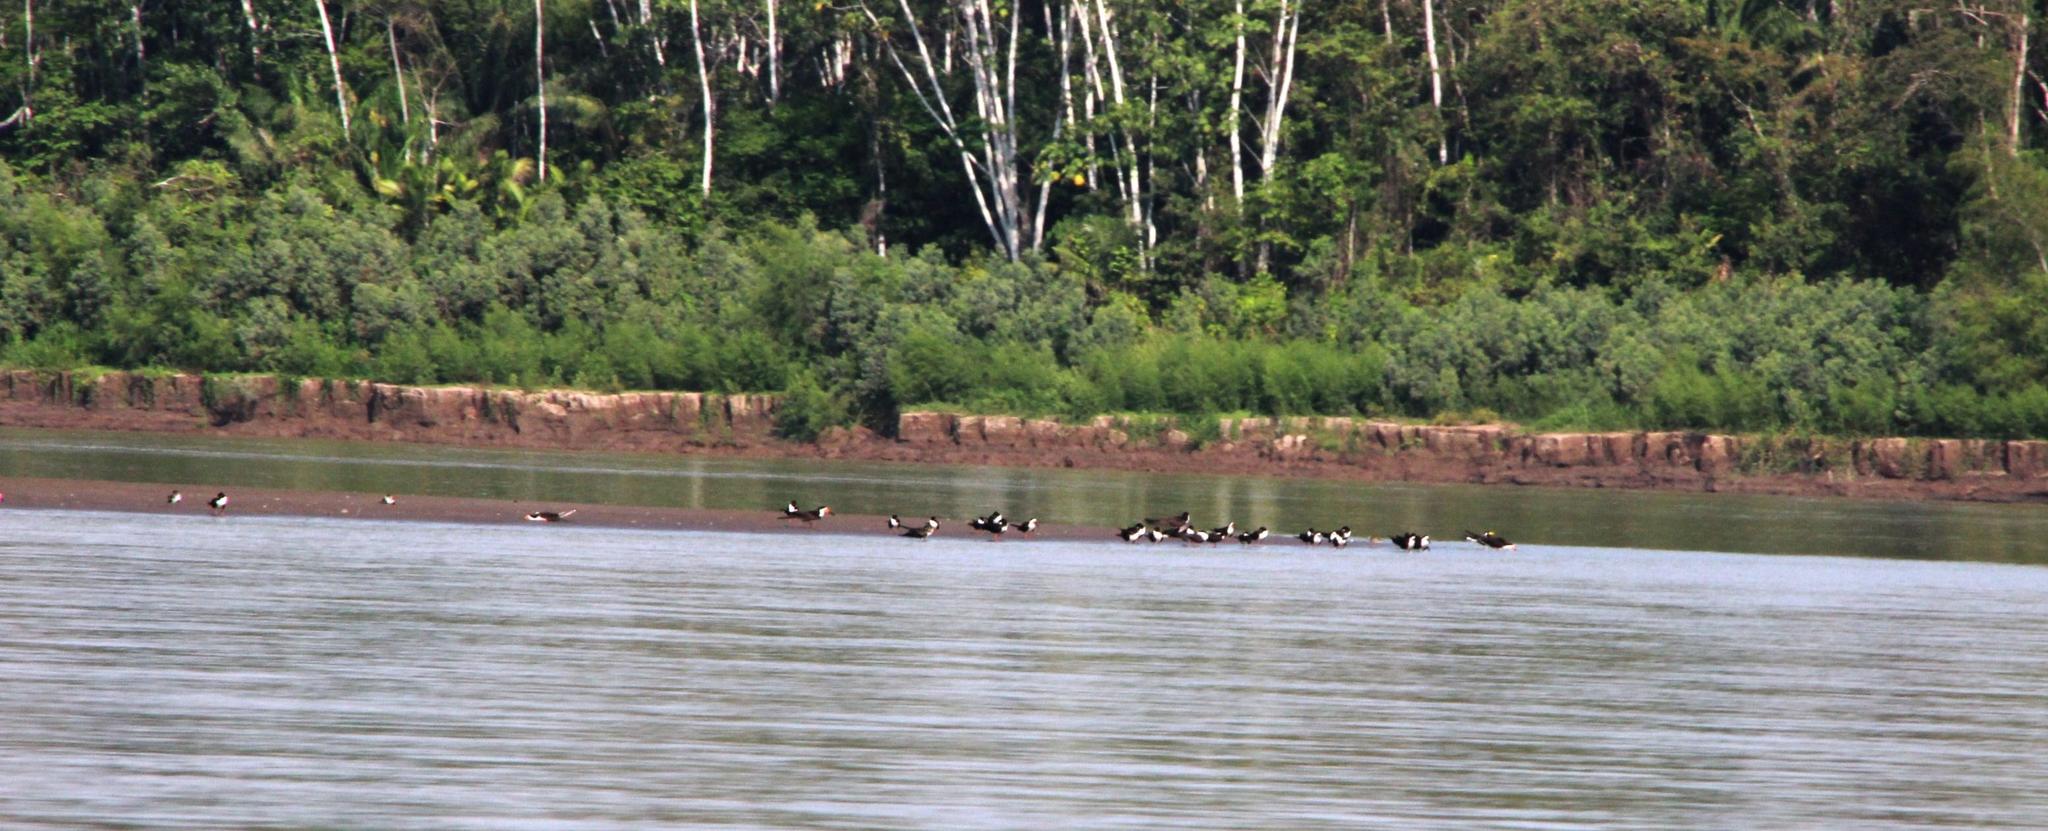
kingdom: Animalia
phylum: Chordata
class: Aves
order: Charadriiformes
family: Laridae
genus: Rynchops
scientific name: Rynchops niger
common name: Black skimmer
